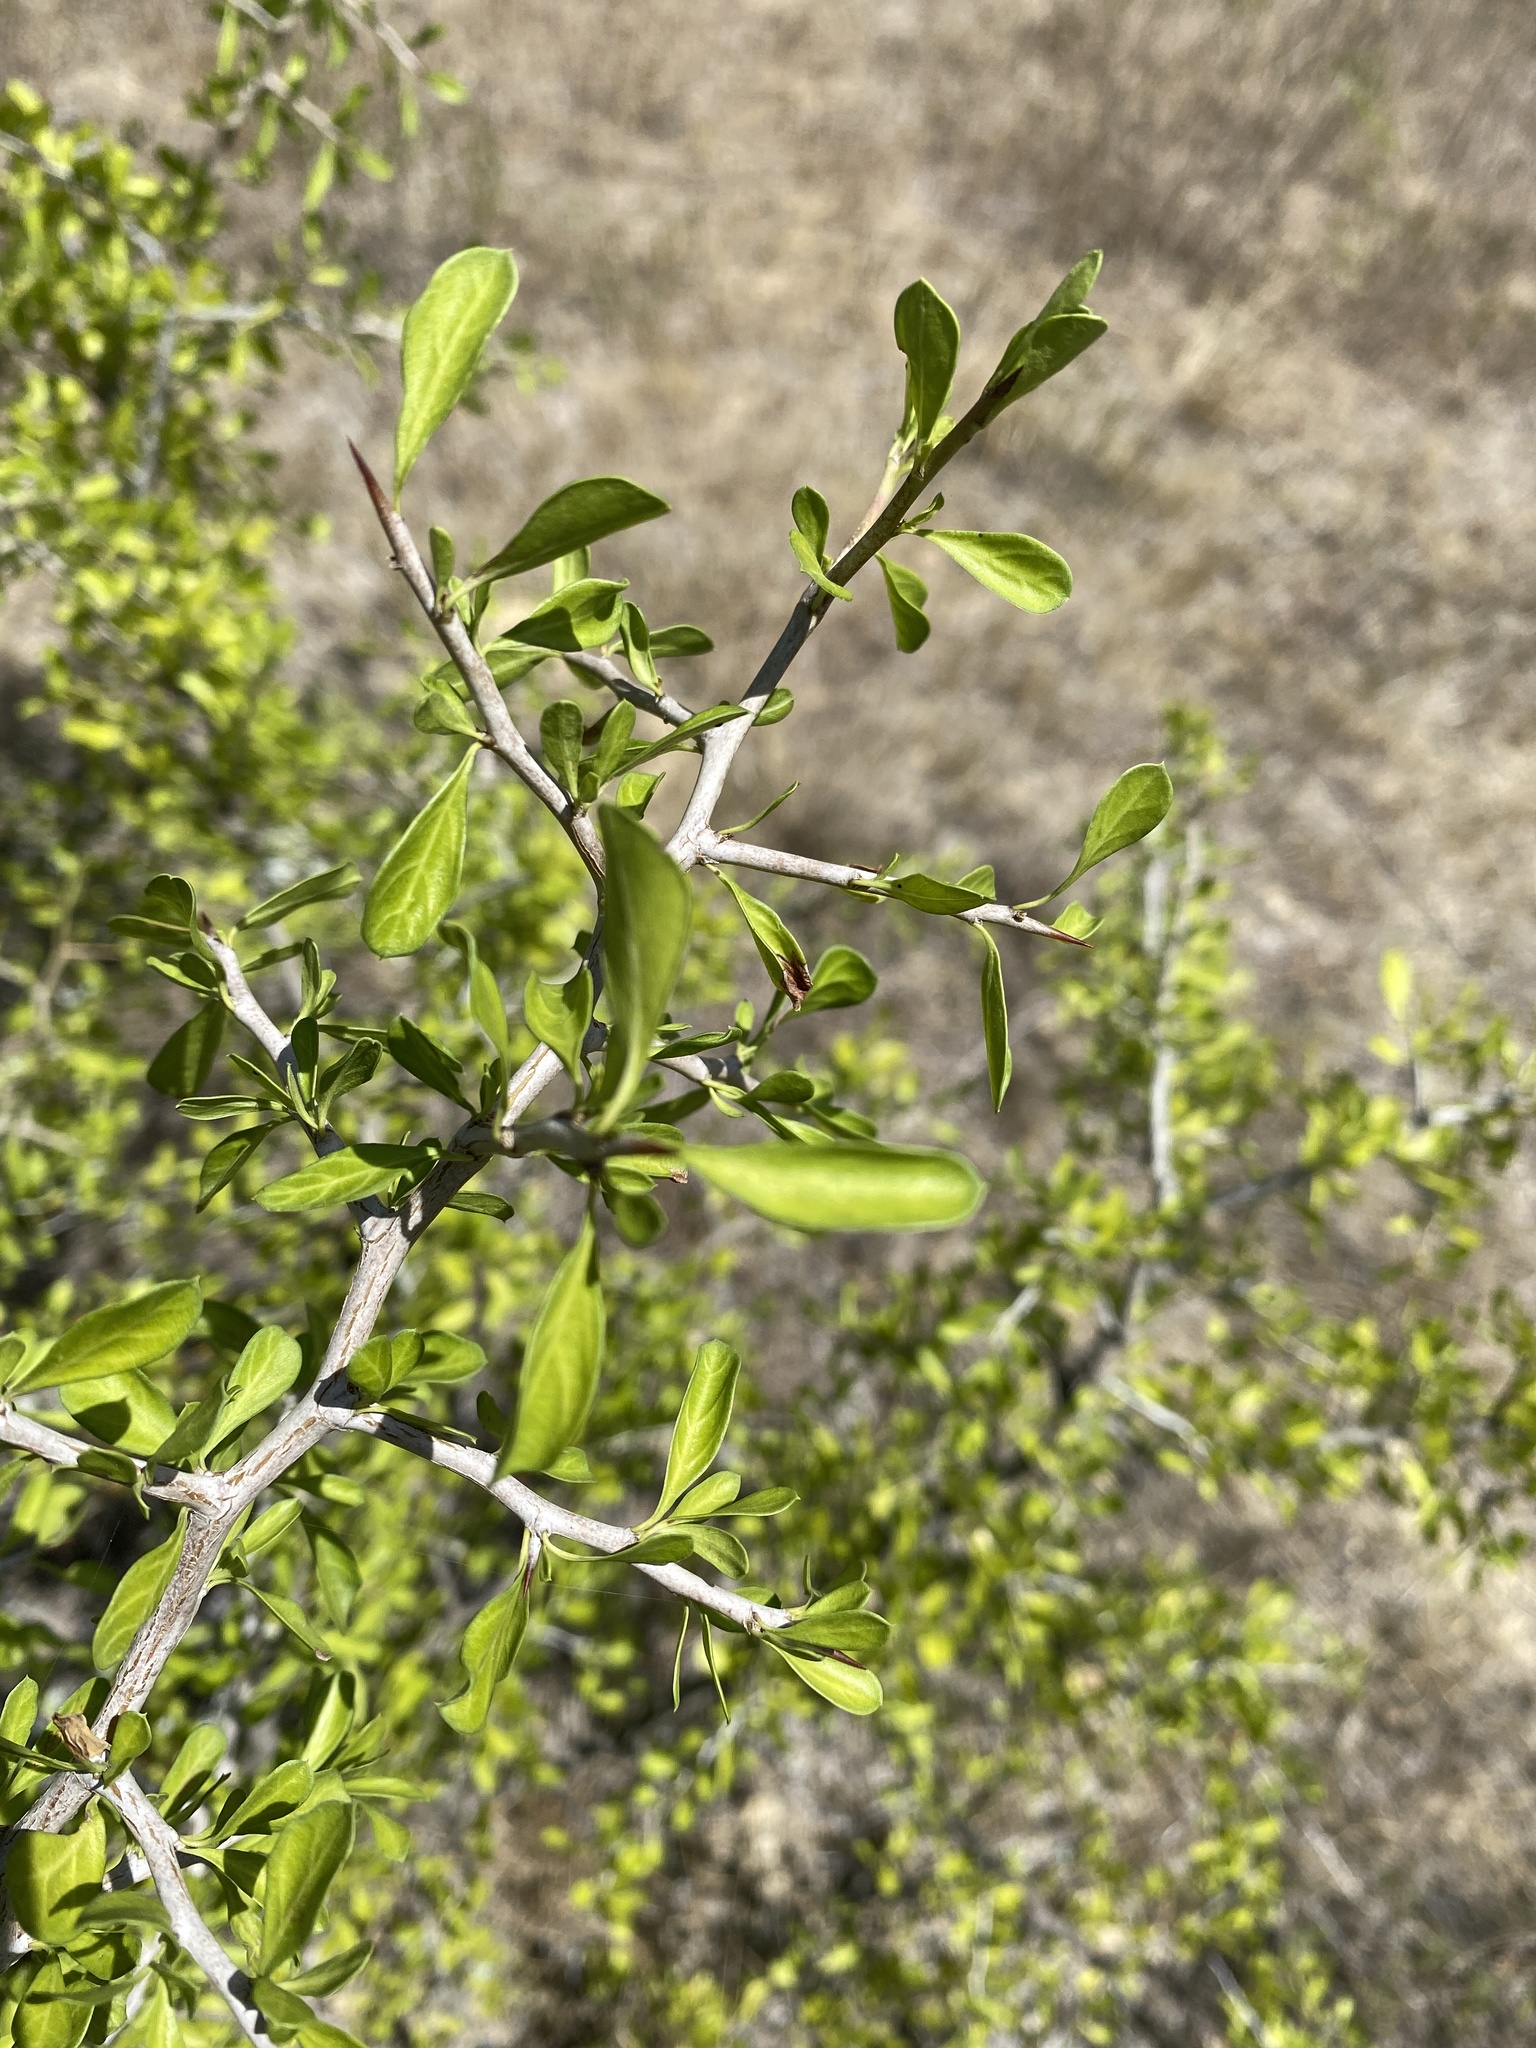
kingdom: Plantae
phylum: Tracheophyta
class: Magnoliopsida
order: Rosales
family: Rhamnaceae
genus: Condalia
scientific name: Condalia hookeri
